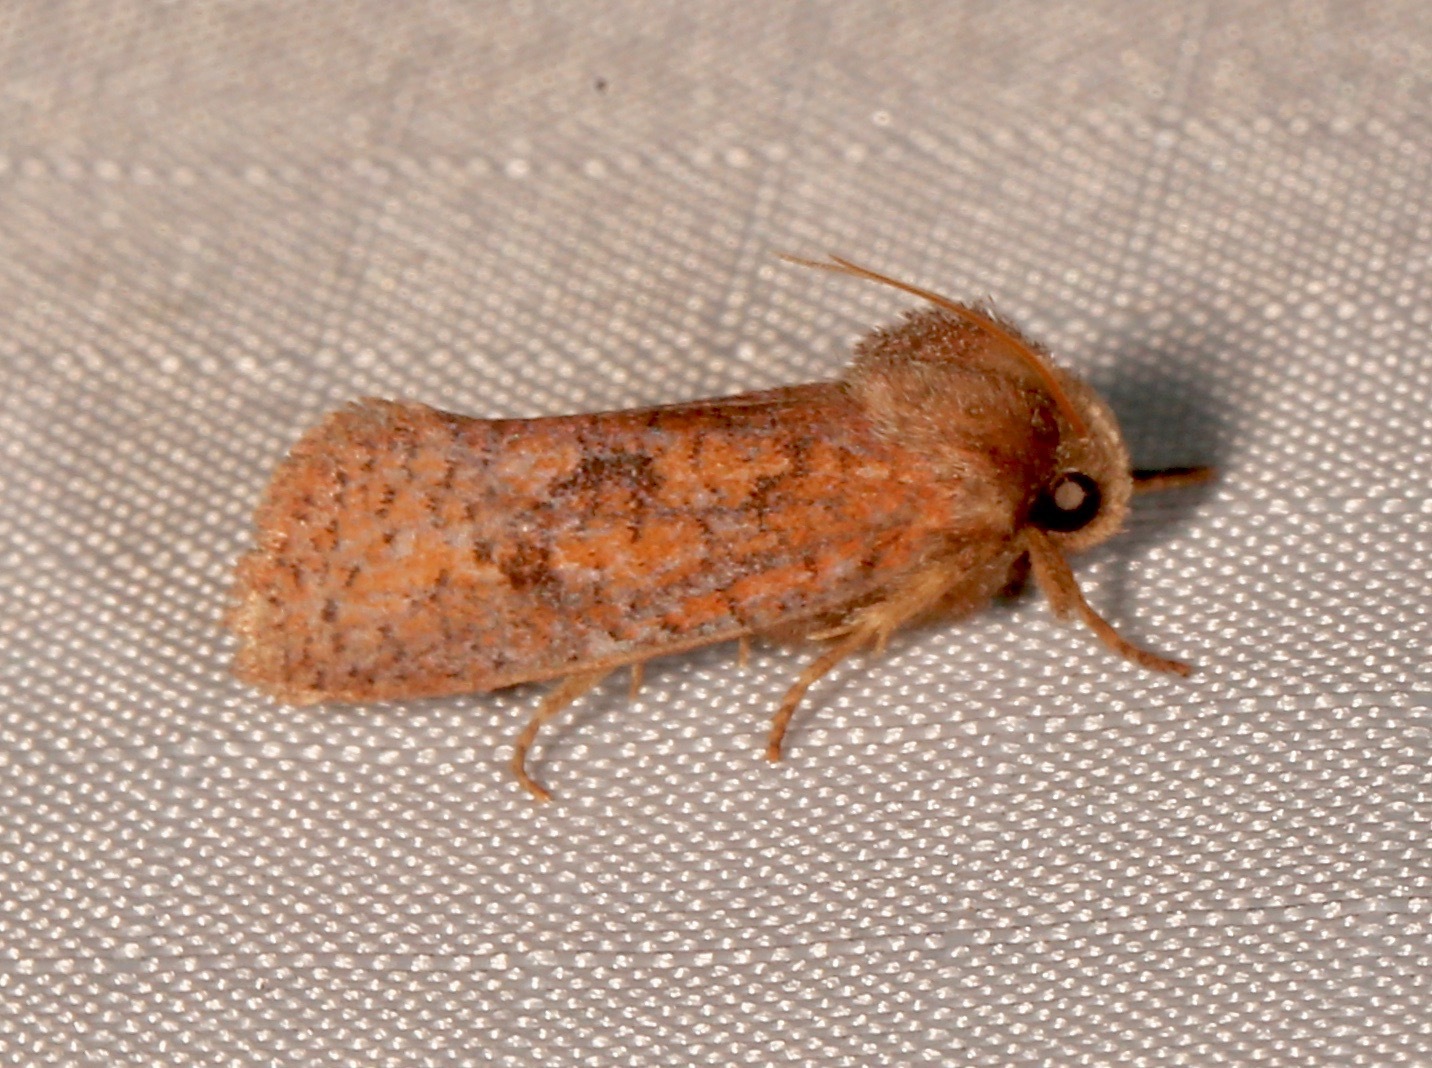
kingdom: Animalia
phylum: Arthropoda
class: Insecta
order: Lepidoptera
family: Tineidae
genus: Acrolophus
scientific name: Acrolophus plumifrontella
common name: Eastern grass tubeworm moth
